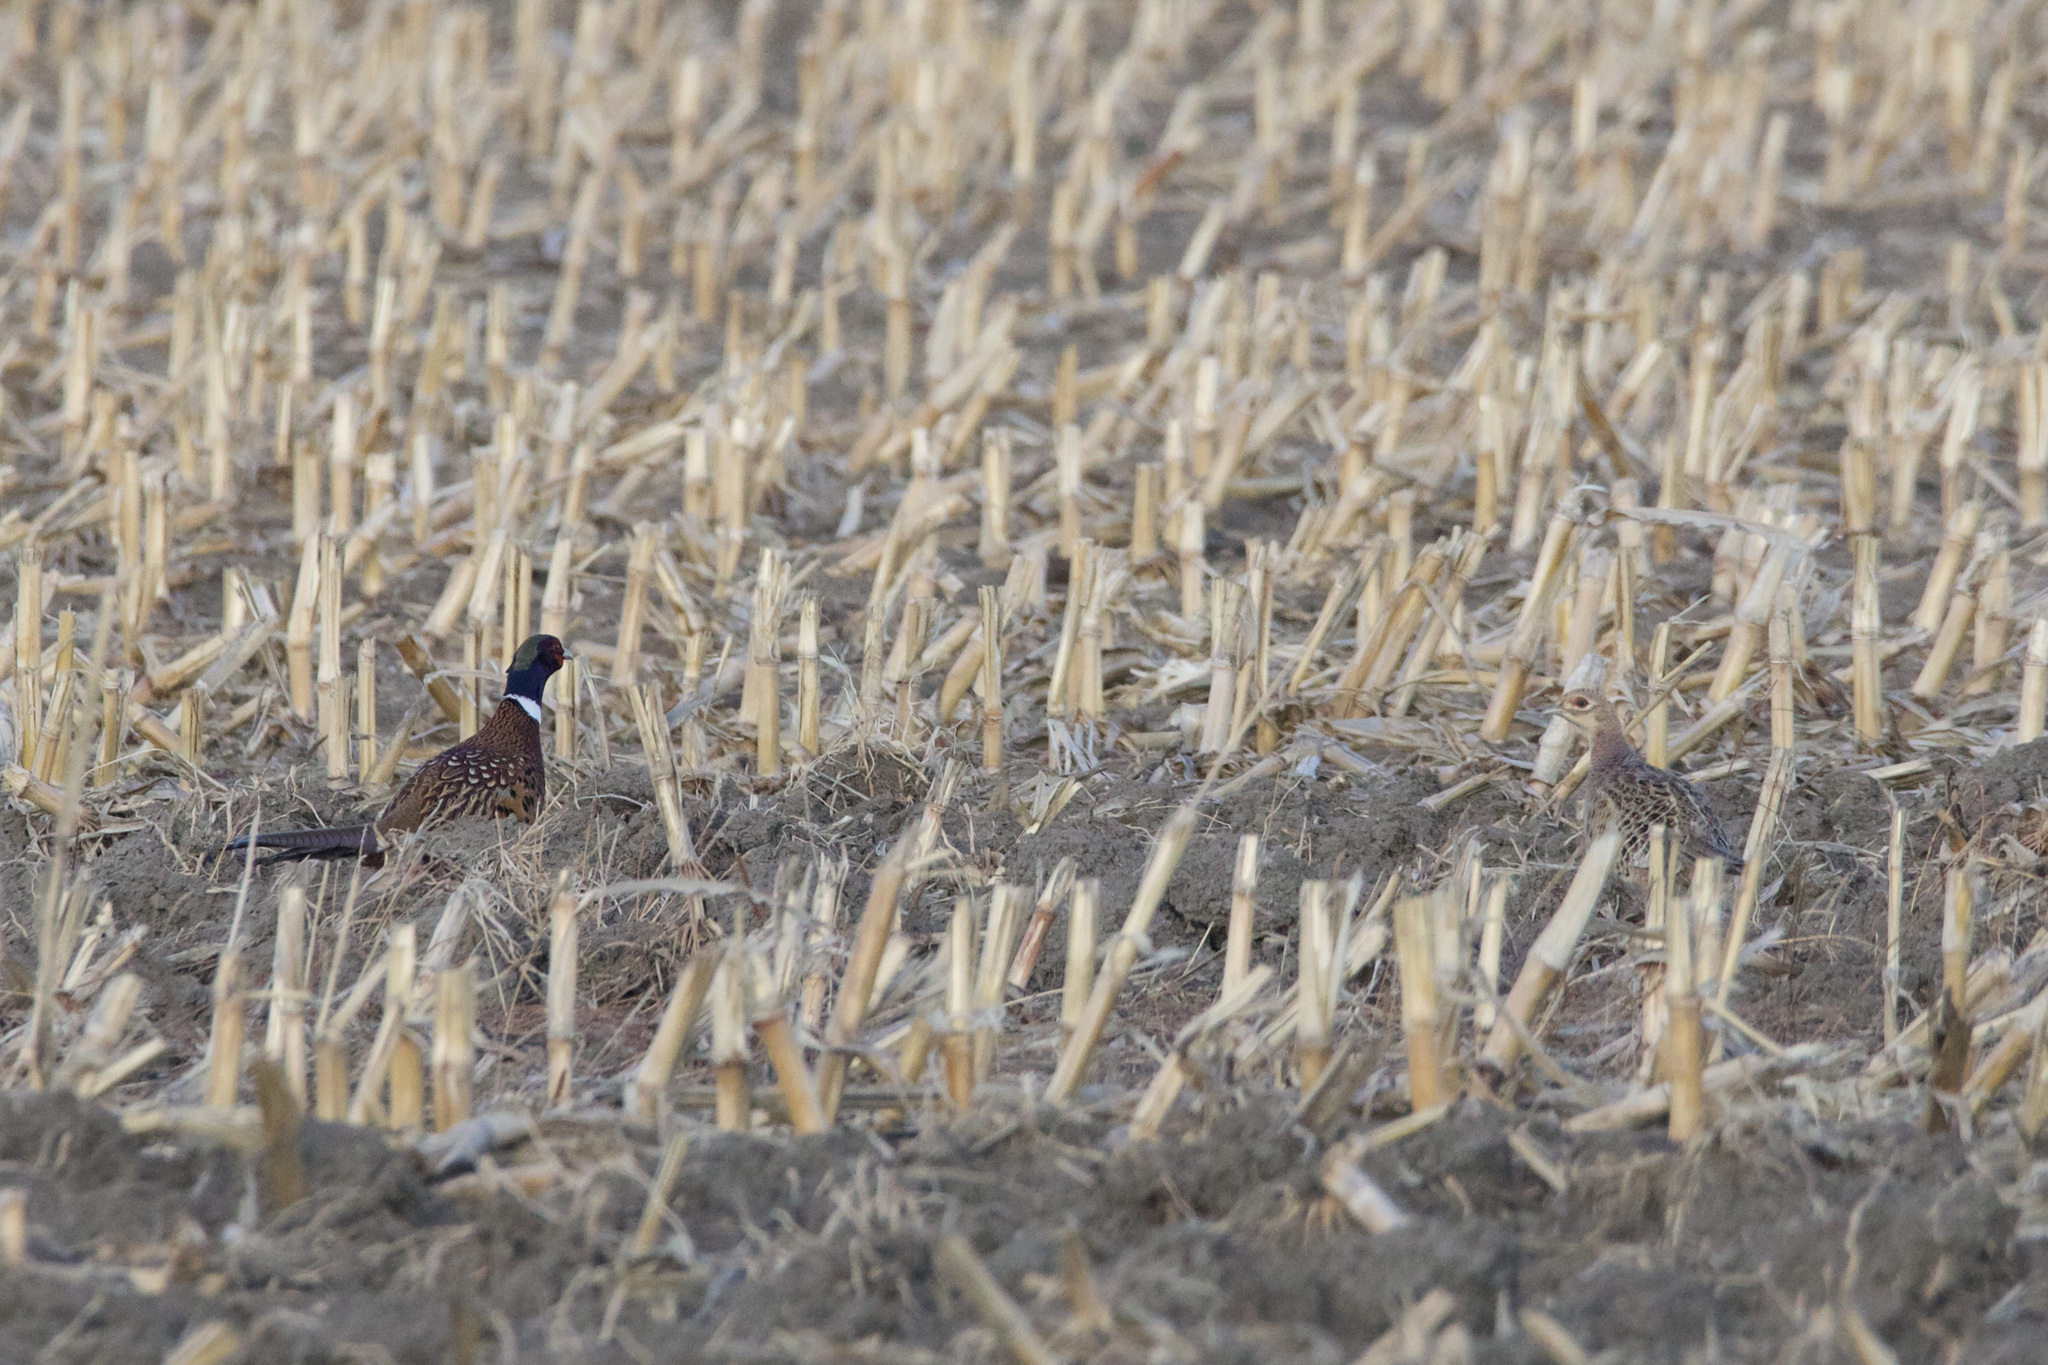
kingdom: Animalia
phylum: Chordata
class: Aves
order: Galliformes
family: Phasianidae
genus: Phasianus
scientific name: Phasianus colchicus
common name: Common pheasant
